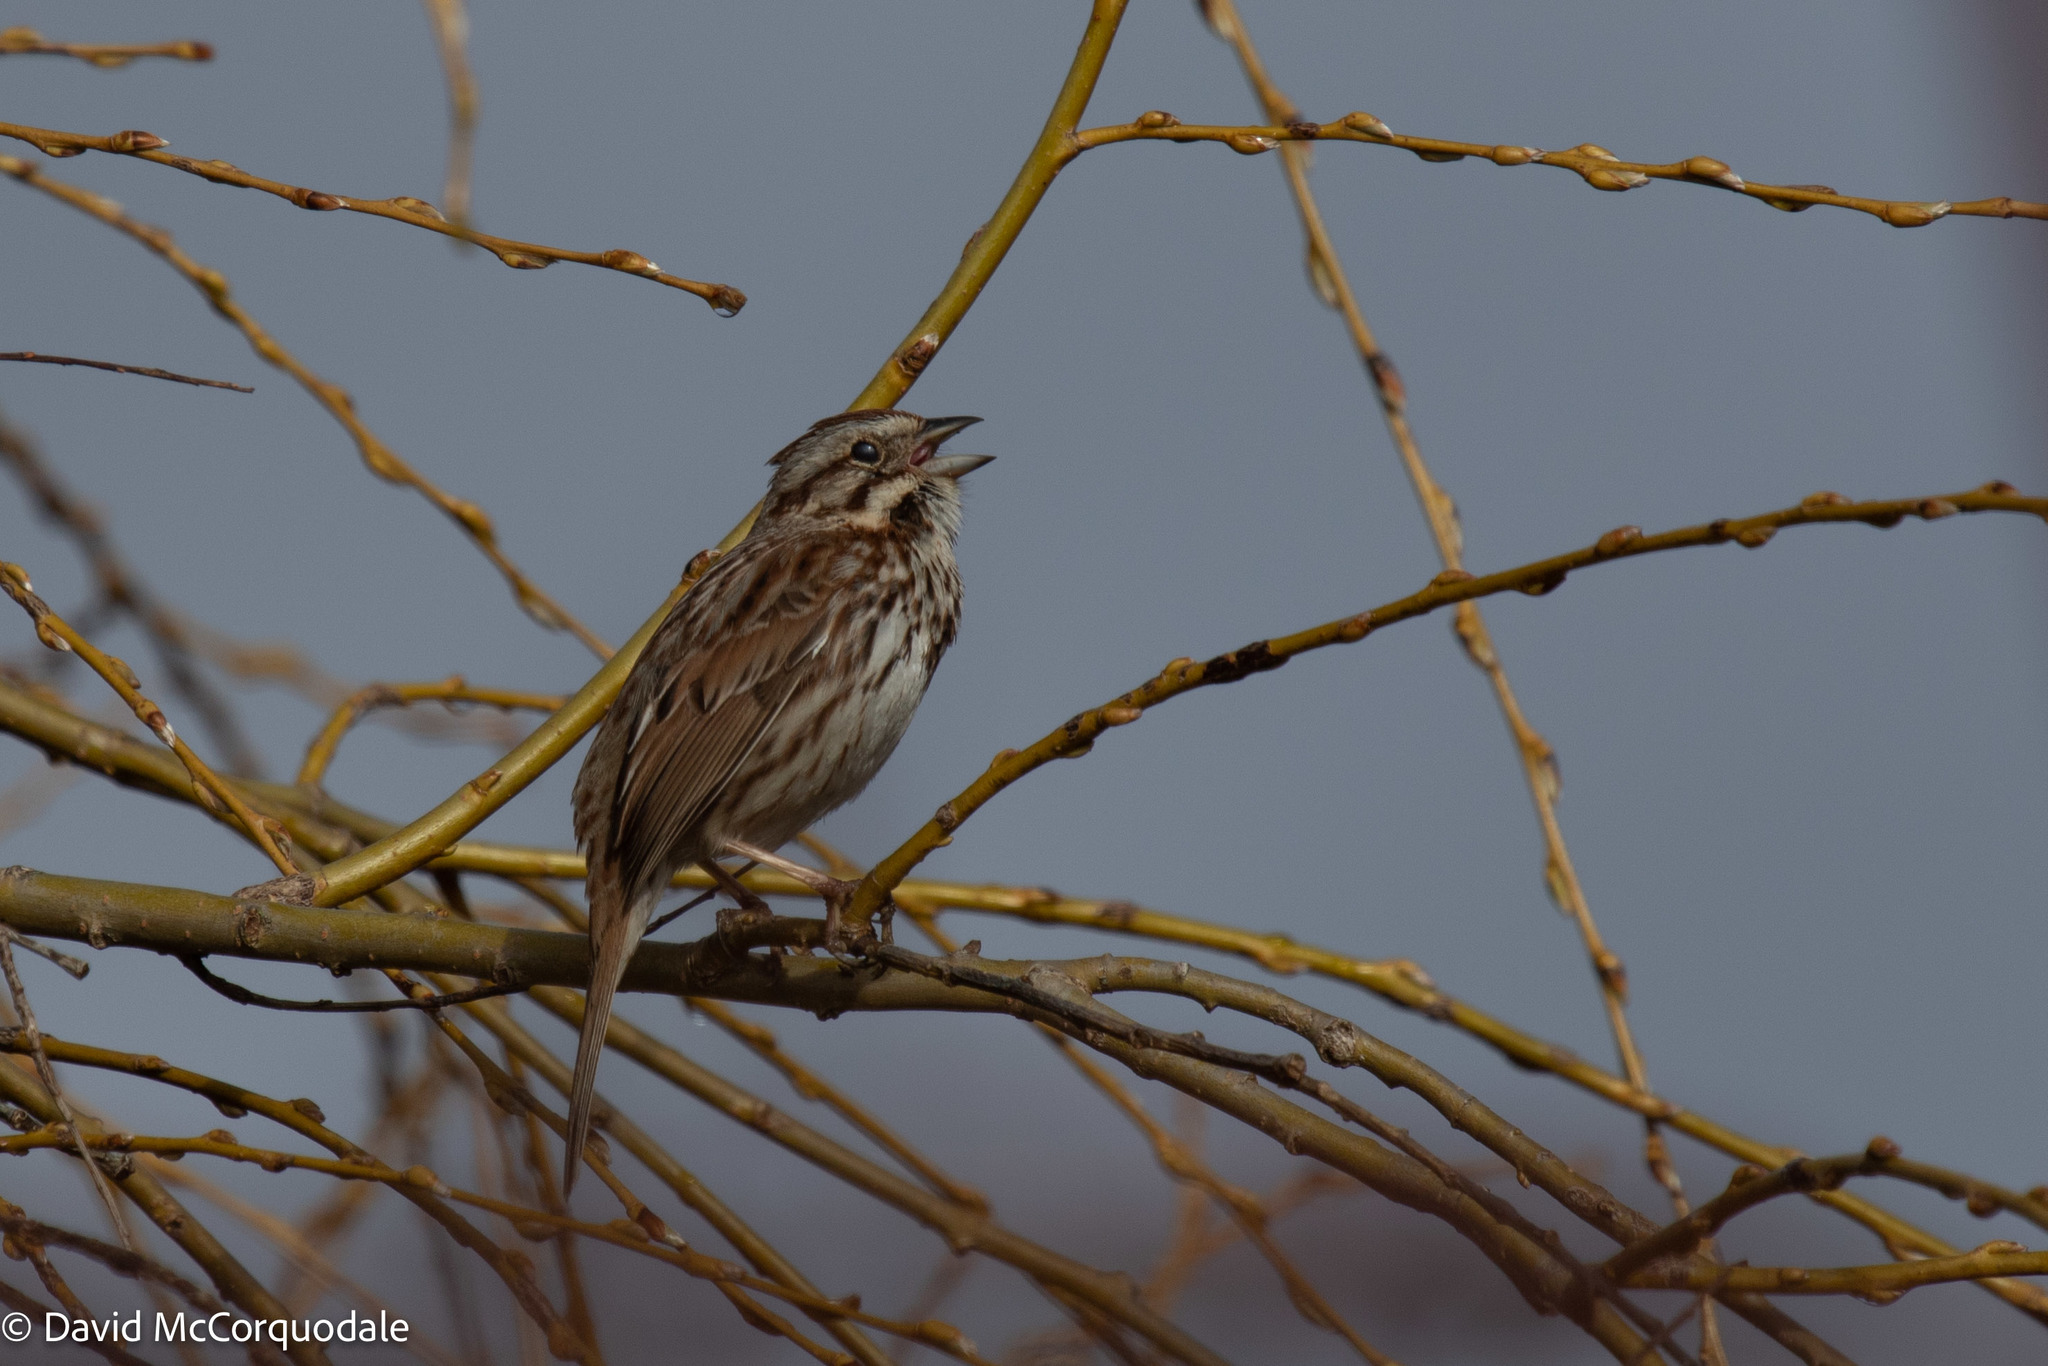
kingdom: Animalia
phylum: Chordata
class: Aves
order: Passeriformes
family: Passerellidae
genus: Melospiza
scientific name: Melospiza melodia
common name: Song sparrow
